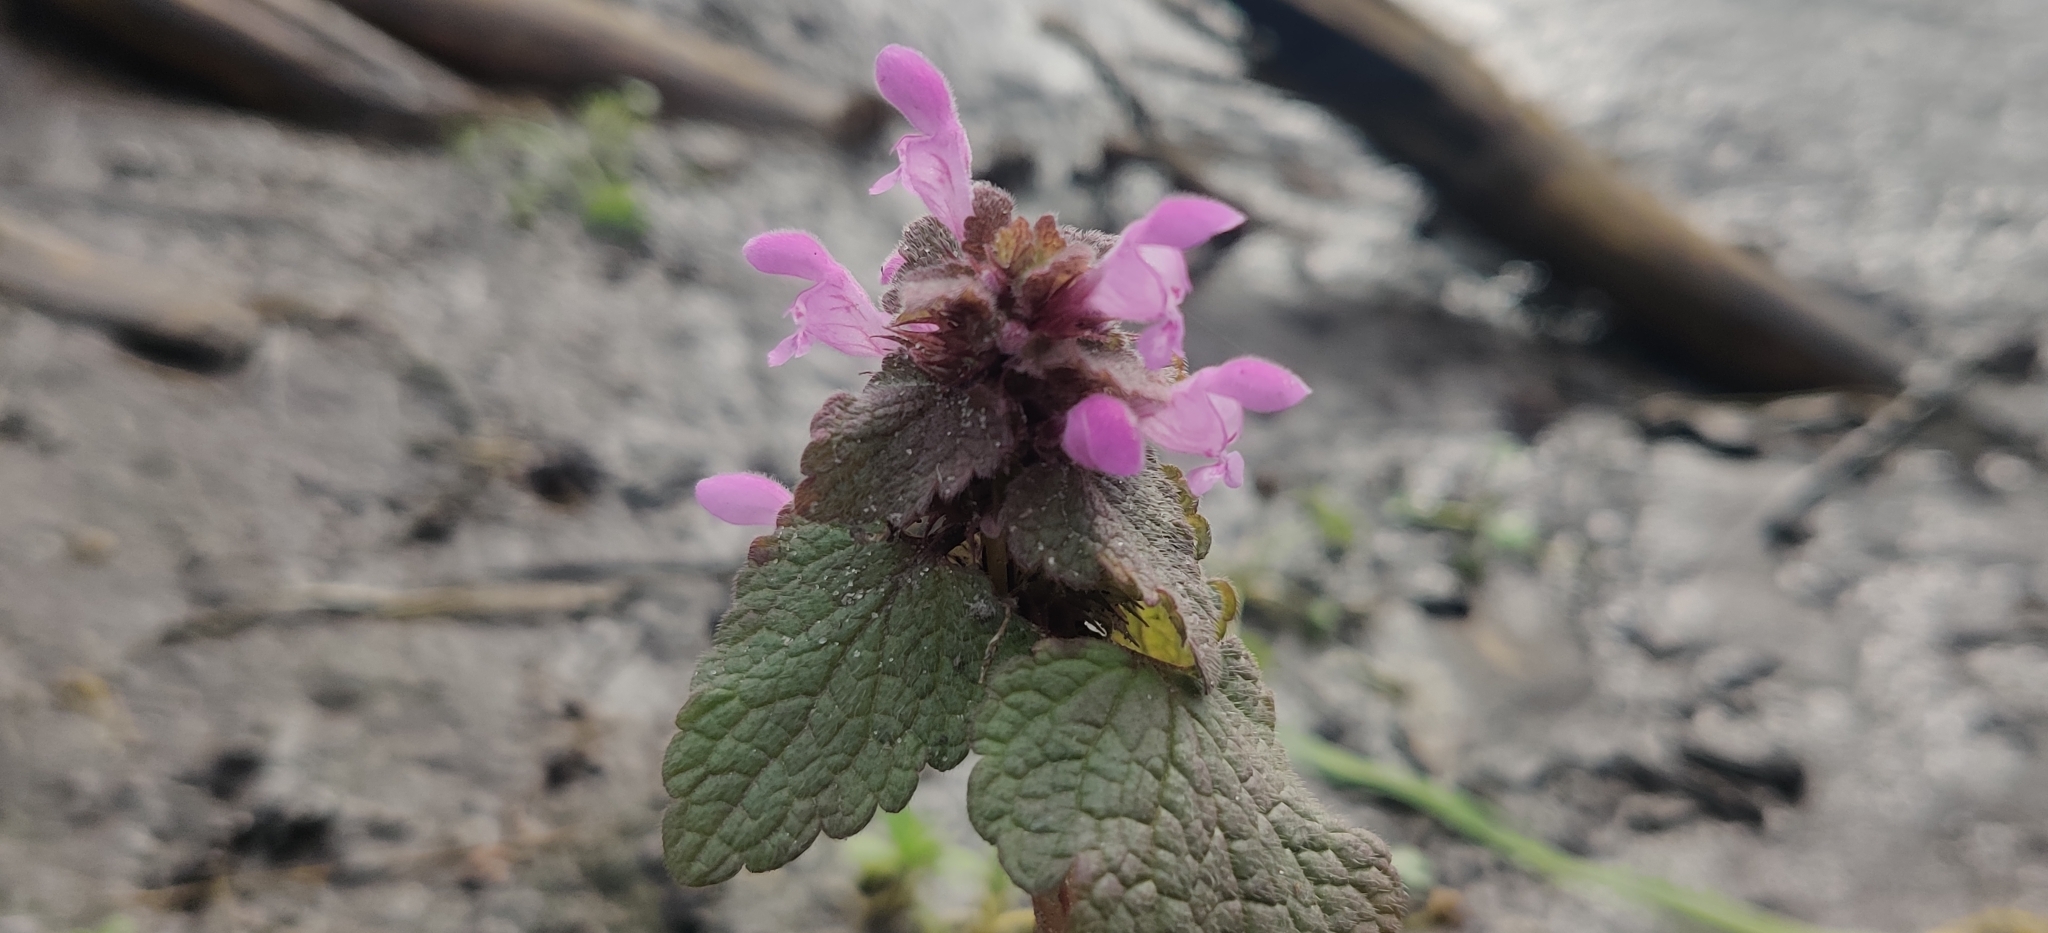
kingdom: Plantae
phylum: Tracheophyta
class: Magnoliopsida
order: Lamiales
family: Lamiaceae
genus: Lamium
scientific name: Lamium purpureum
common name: Red dead-nettle
